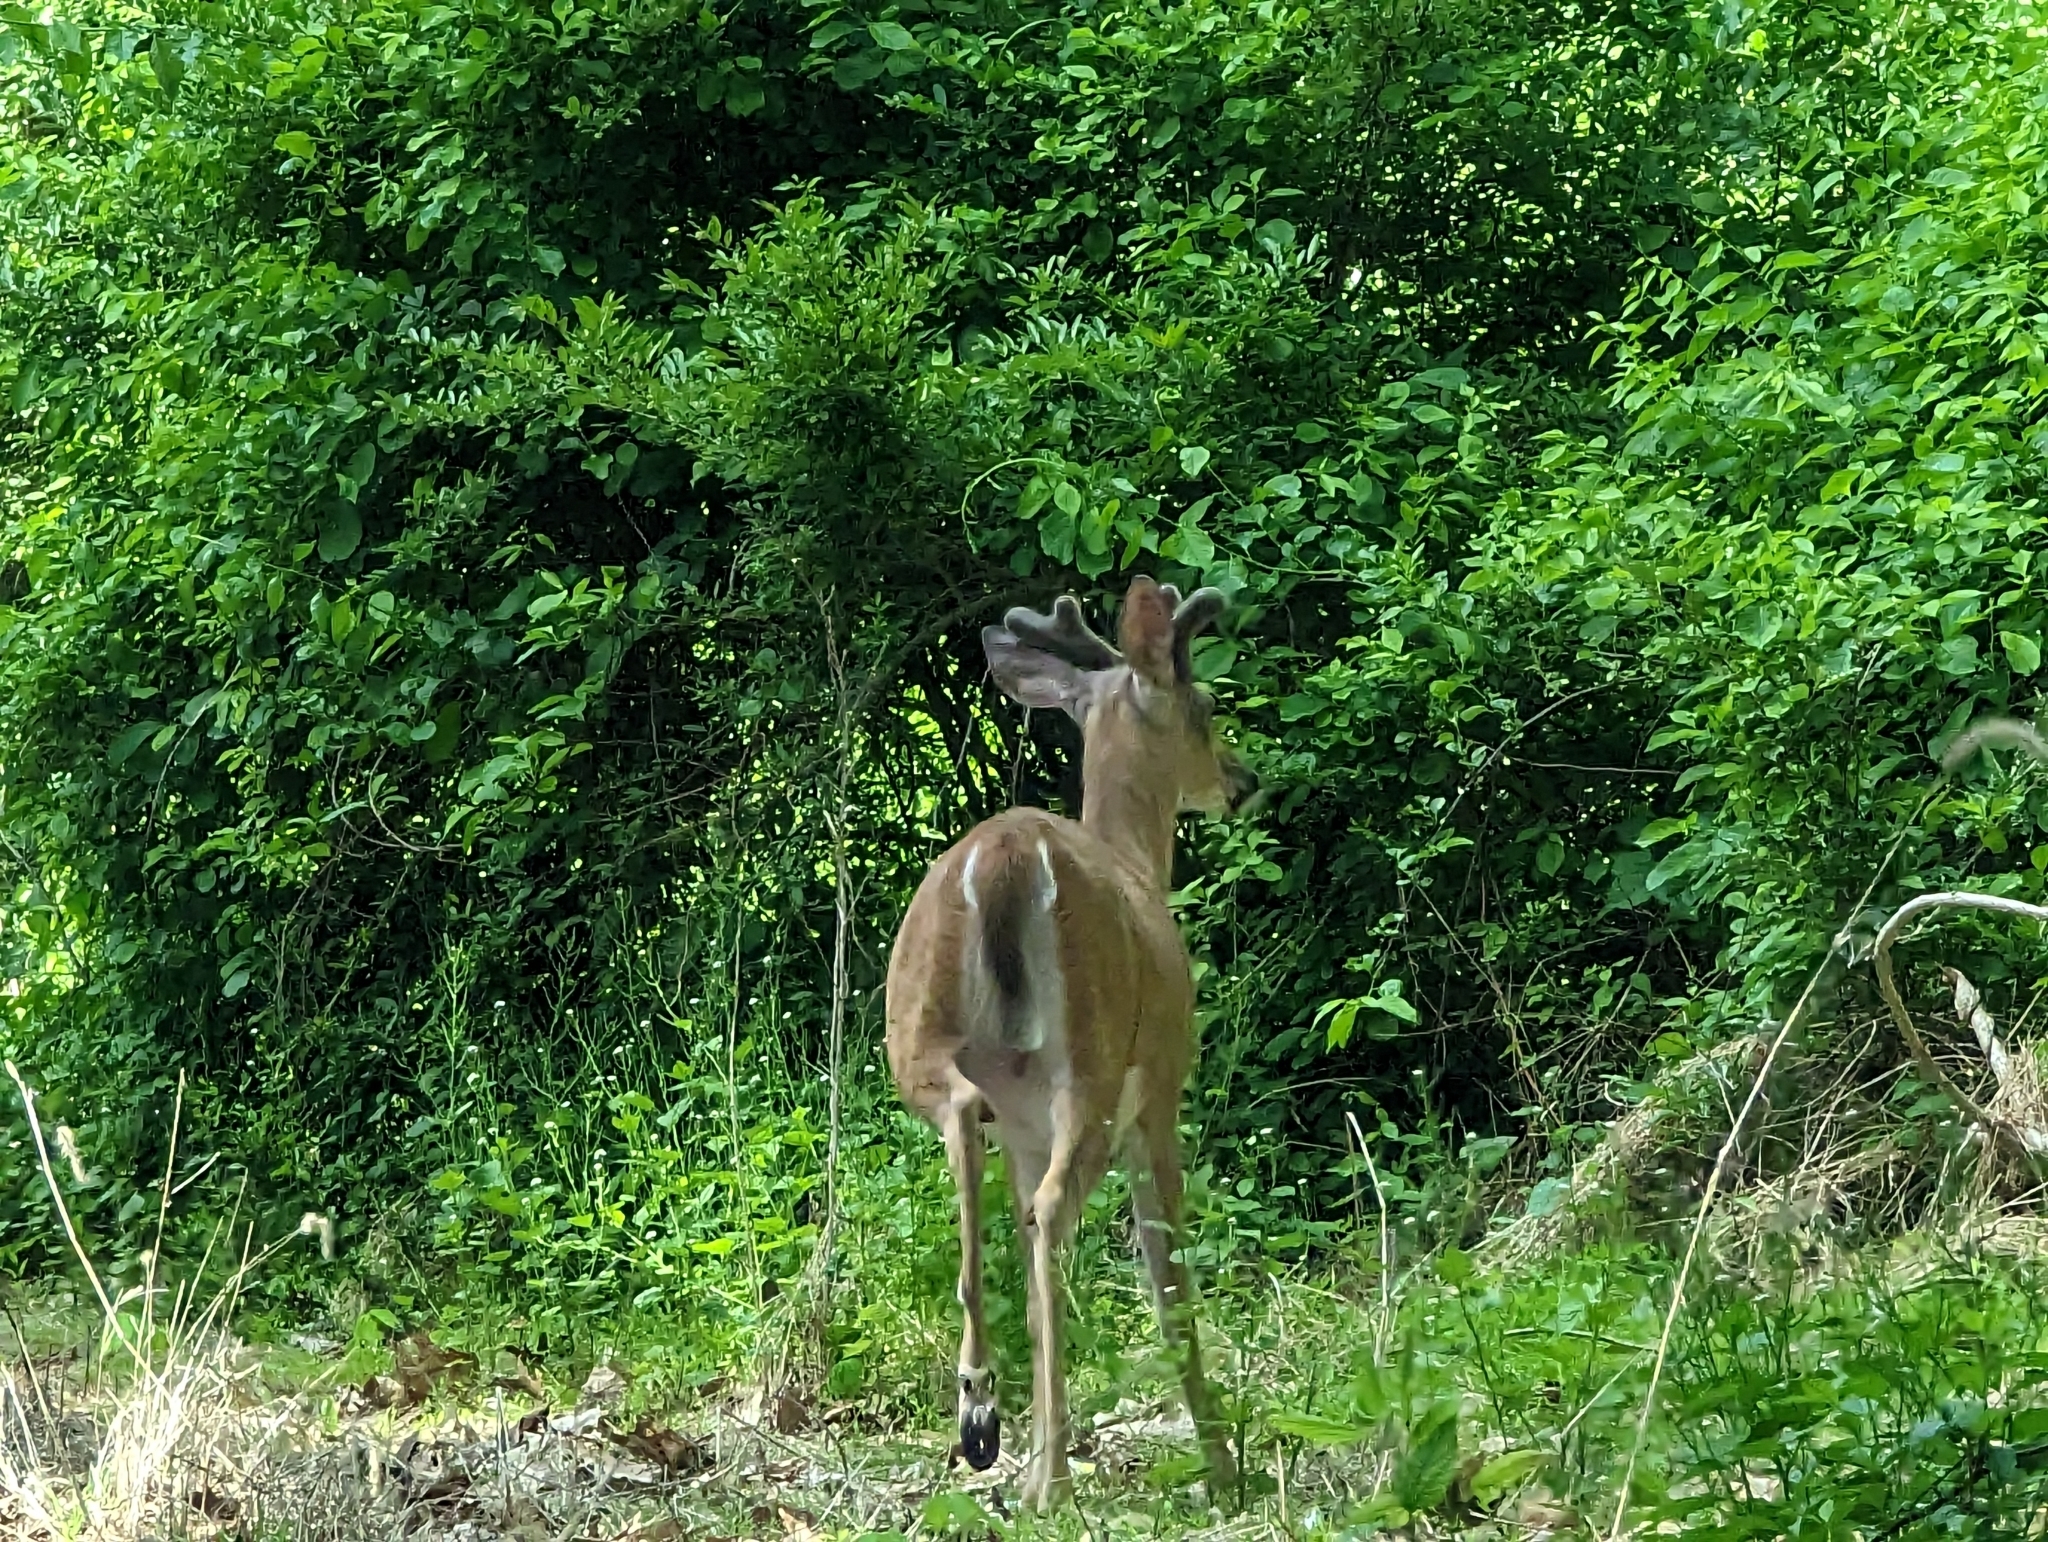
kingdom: Animalia
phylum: Chordata
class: Mammalia
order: Artiodactyla
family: Cervidae
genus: Odocoileus
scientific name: Odocoileus virginianus
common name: White-tailed deer
